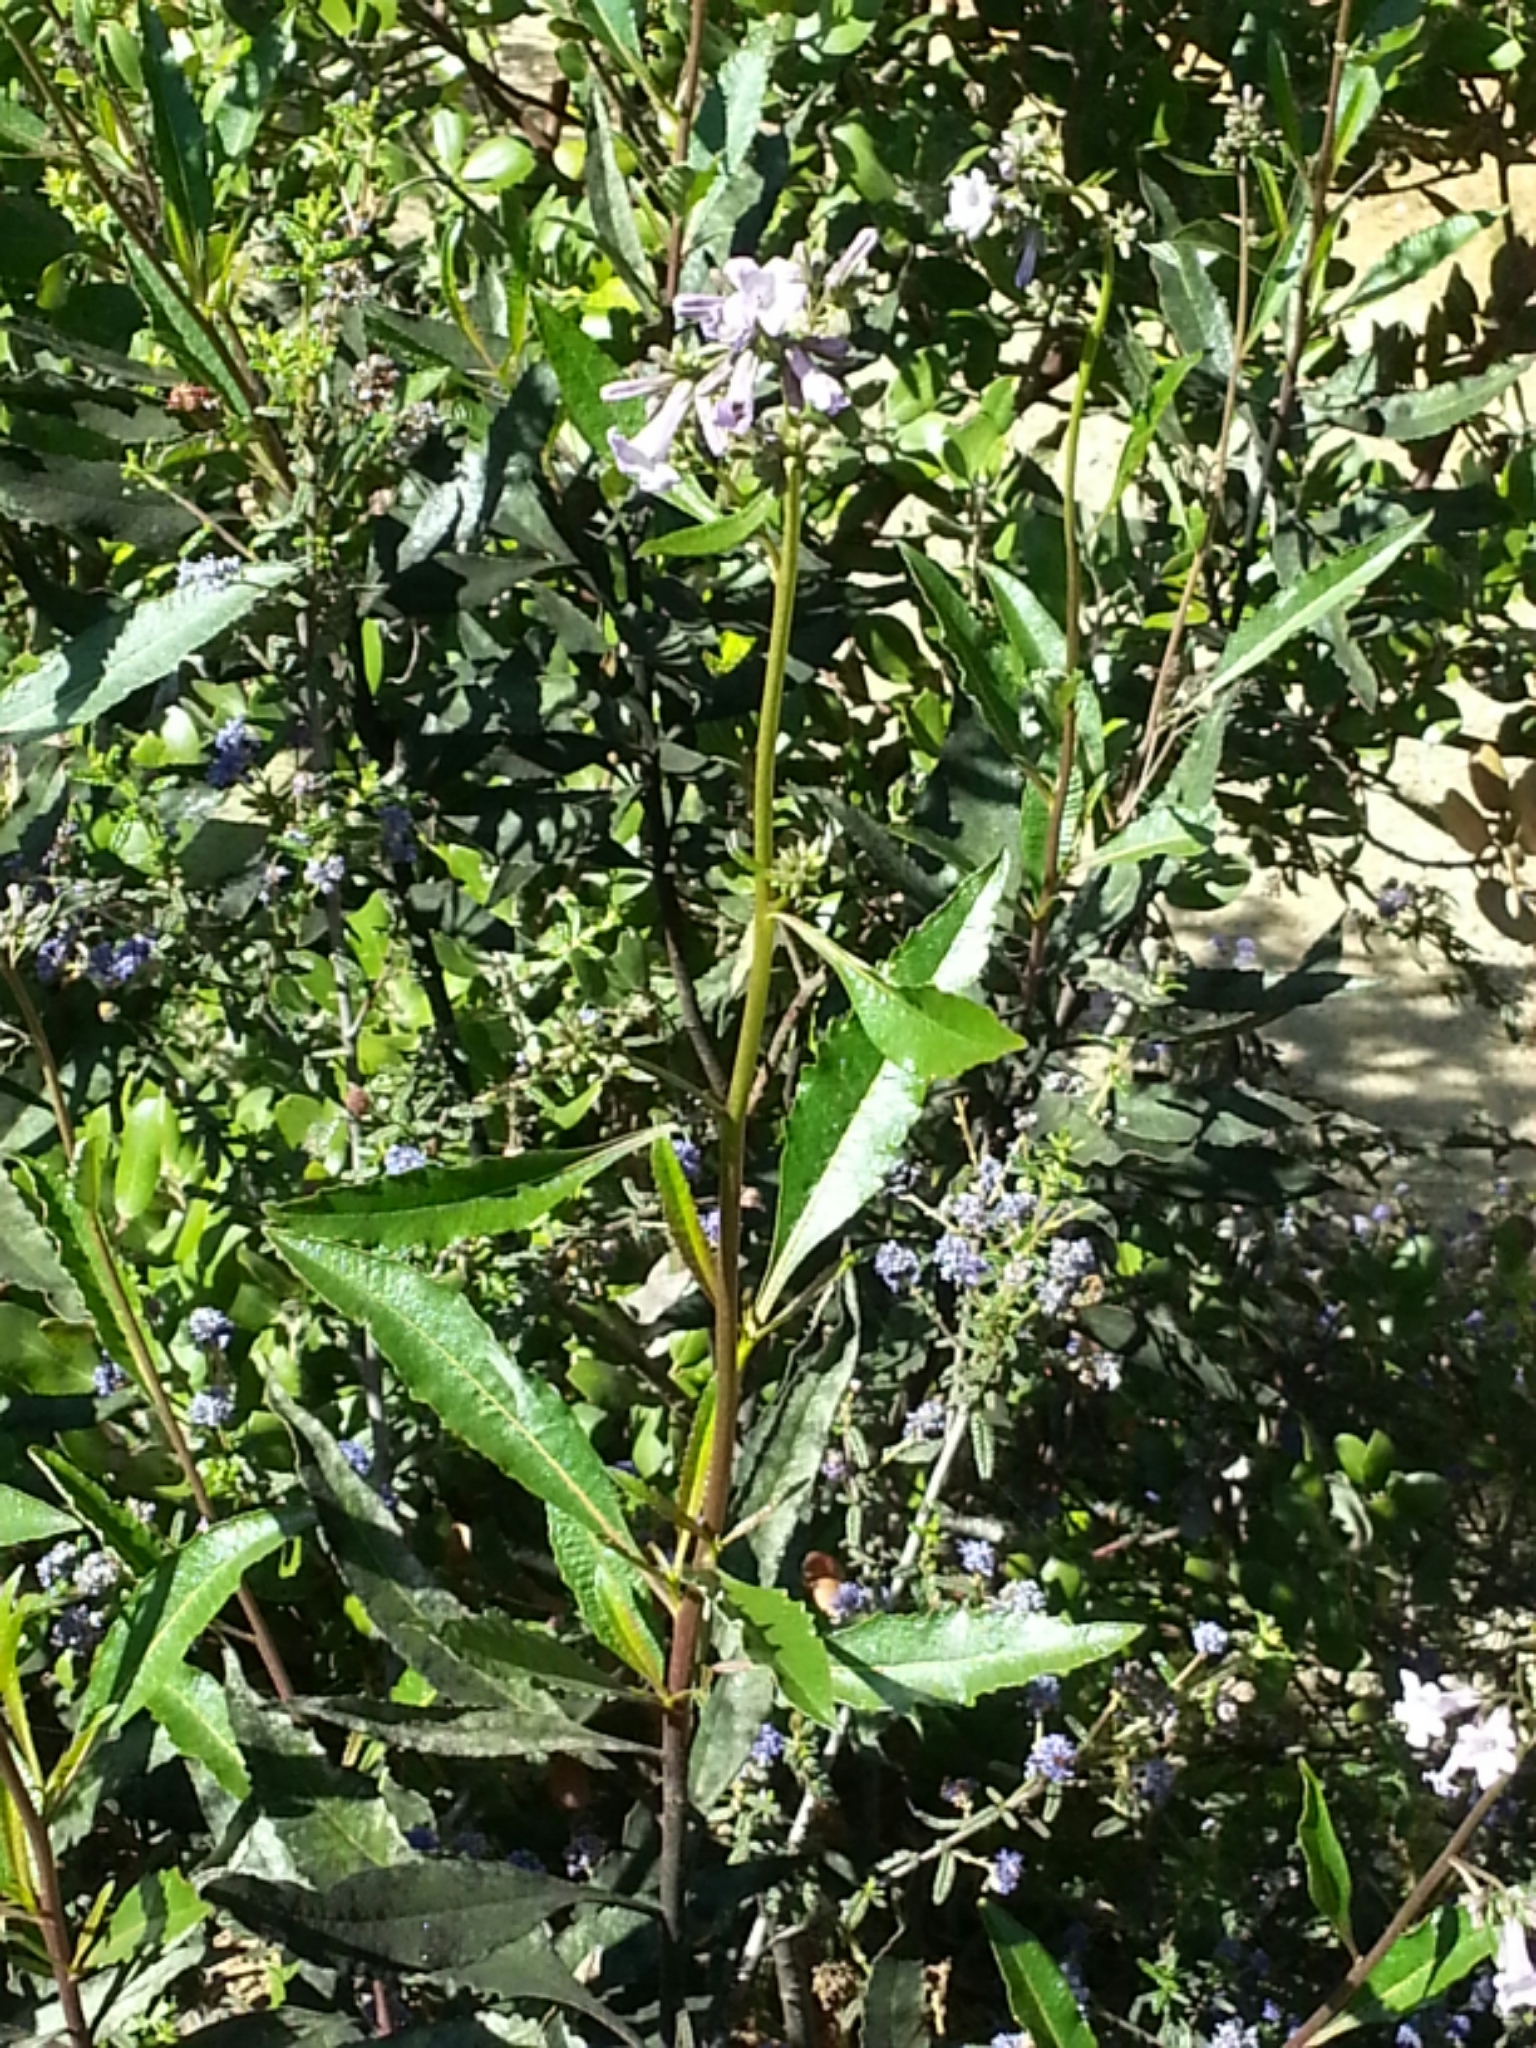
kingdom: Plantae
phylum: Tracheophyta
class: Magnoliopsida
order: Boraginales
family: Namaceae
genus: Eriodictyon
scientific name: Eriodictyon californicum
